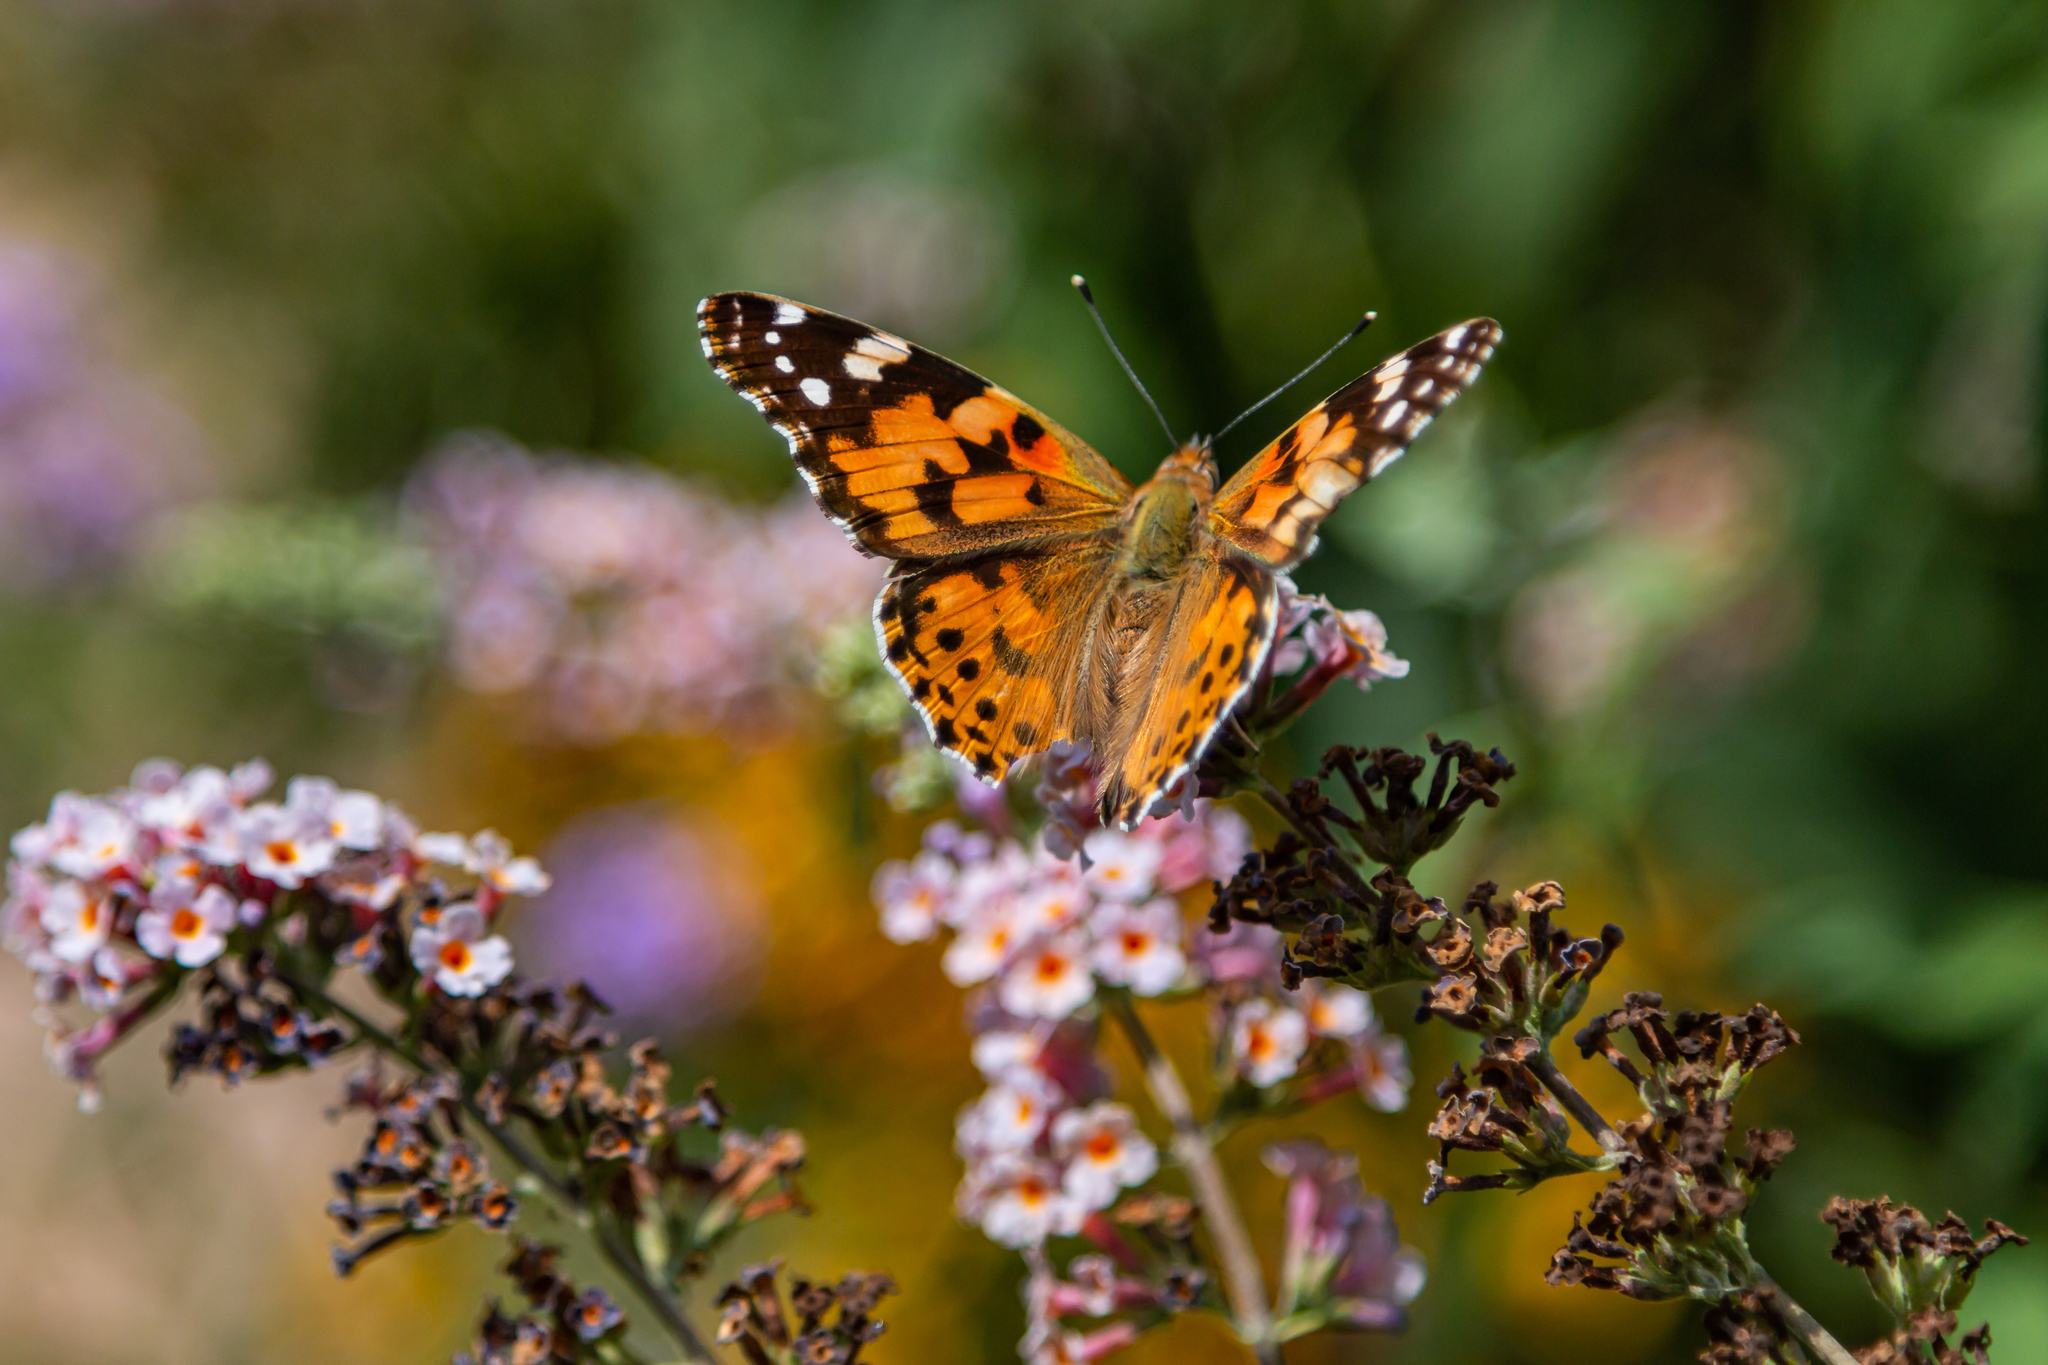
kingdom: Animalia
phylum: Arthropoda
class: Insecta
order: Lepidoptera
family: Nymphalidae
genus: Vanessa
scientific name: Vanessa cardui
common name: Painted lady
